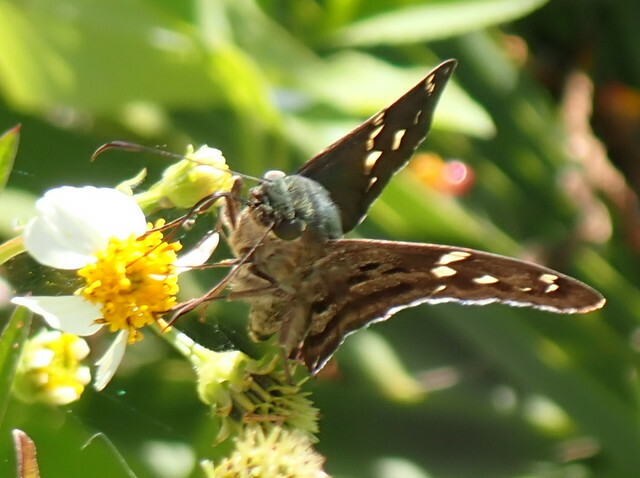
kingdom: Animalia
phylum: Arthropoda
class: Insecta
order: Lepidoptera
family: Hesperiidae
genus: Urbanus
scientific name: Urbanus proteus
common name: Long-tailed skipper
